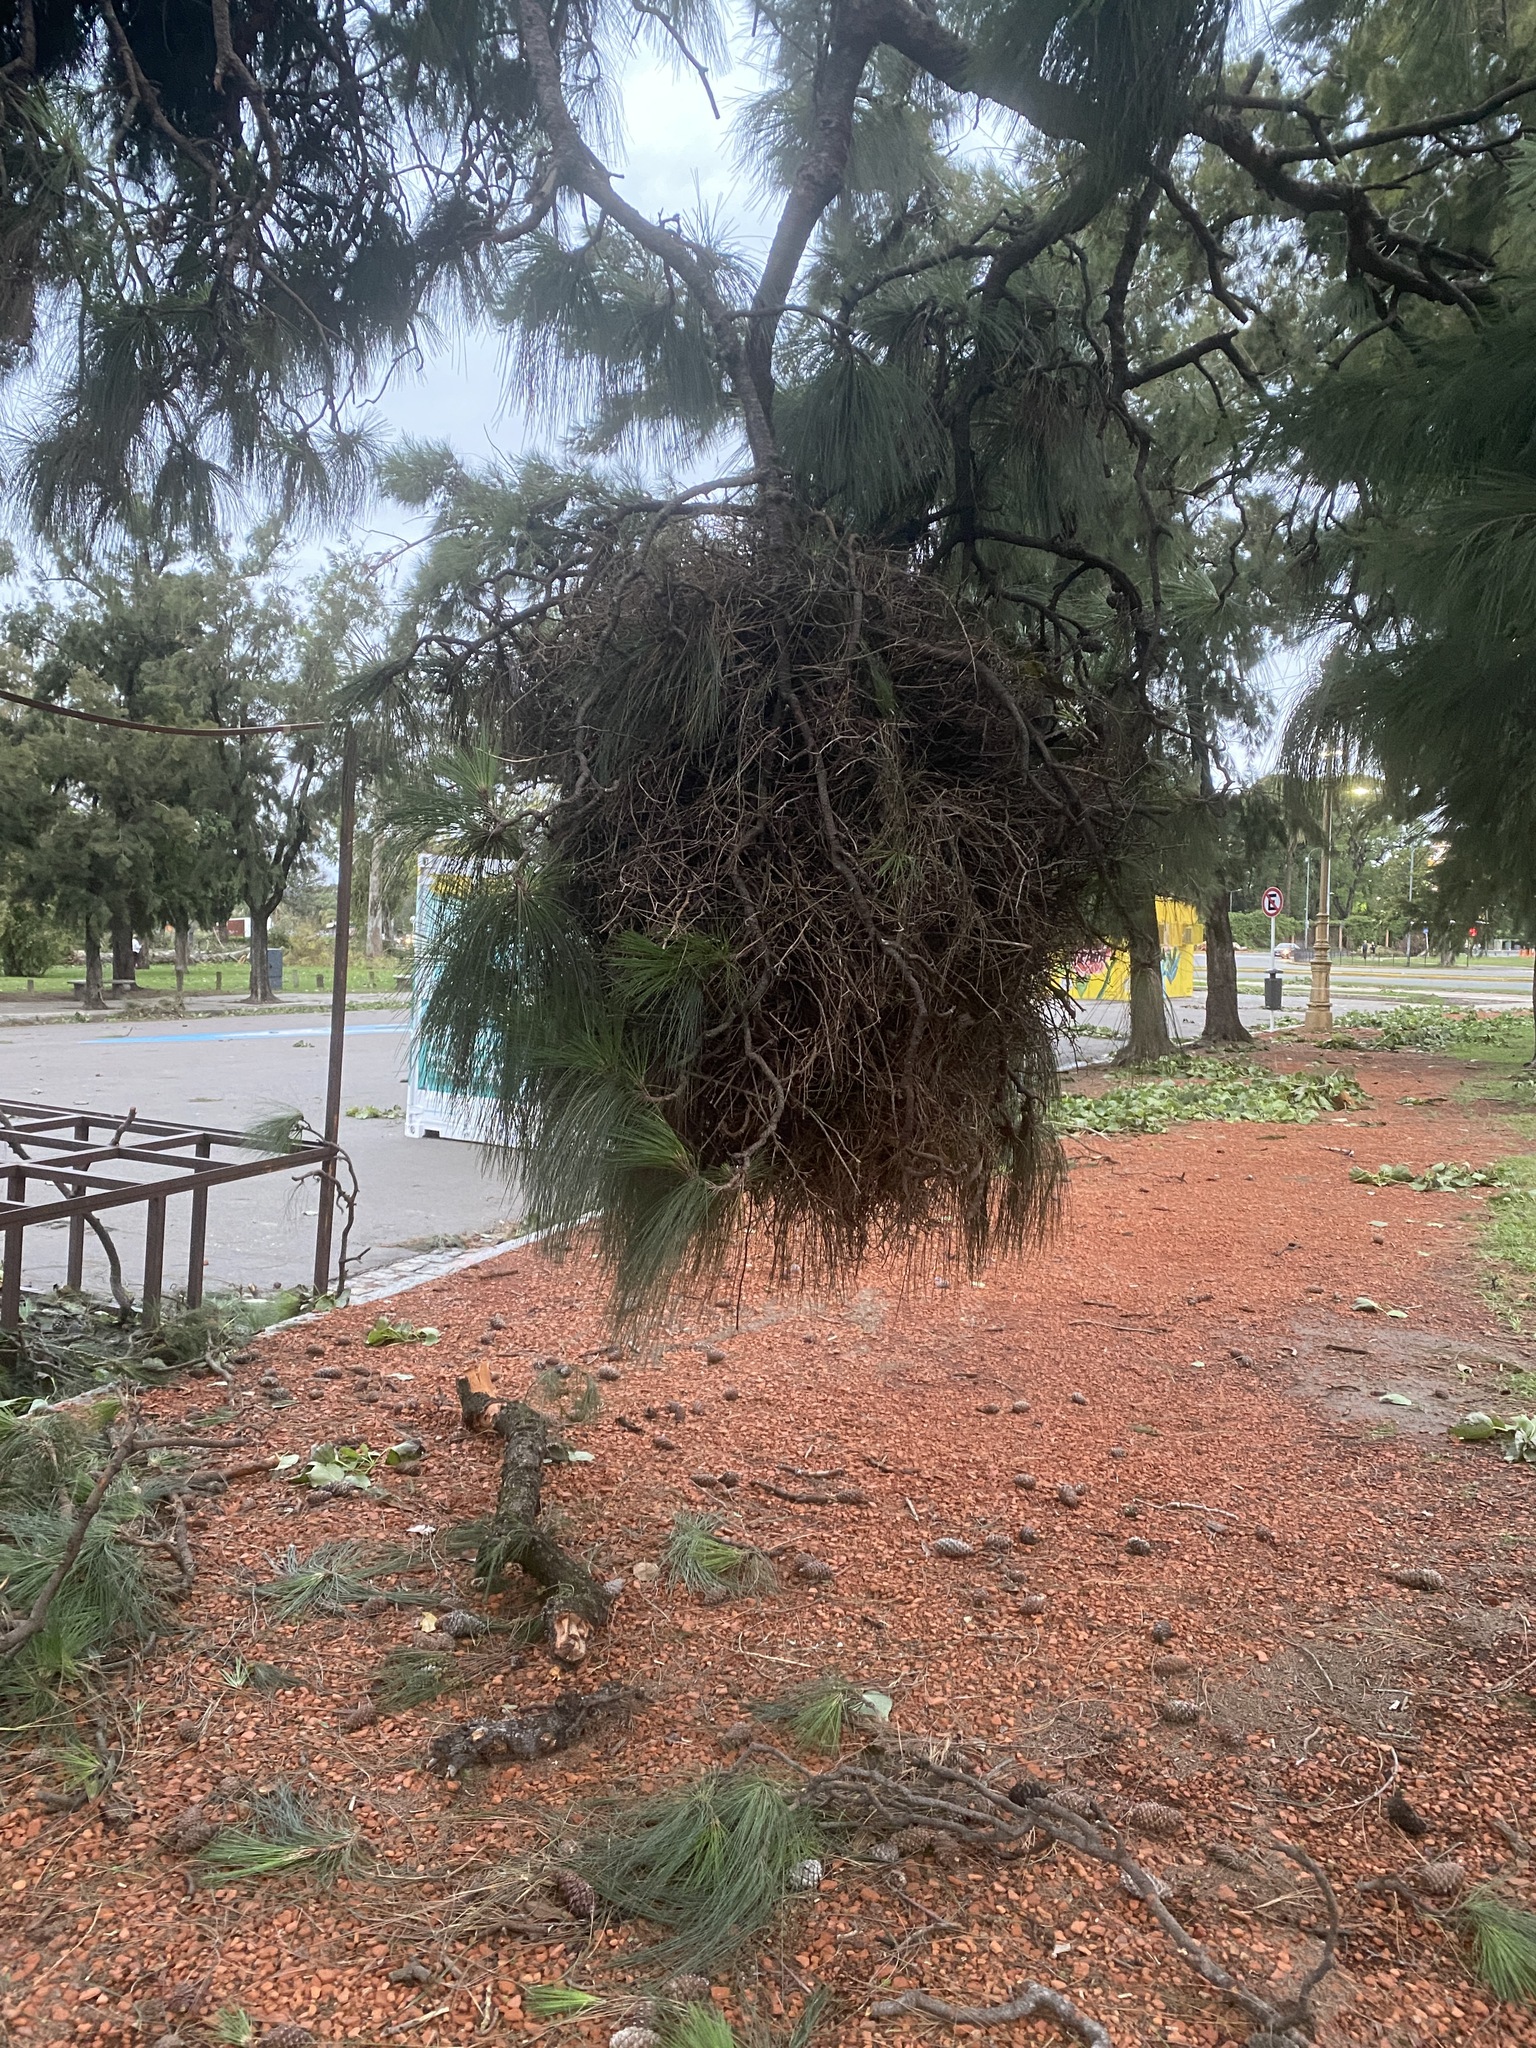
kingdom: Animalia
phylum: Chordata
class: Aves
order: Psittaciformes
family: Psittacidae
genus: Myiopsitta
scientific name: Myiopsitta monachus
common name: Monk parakeet
